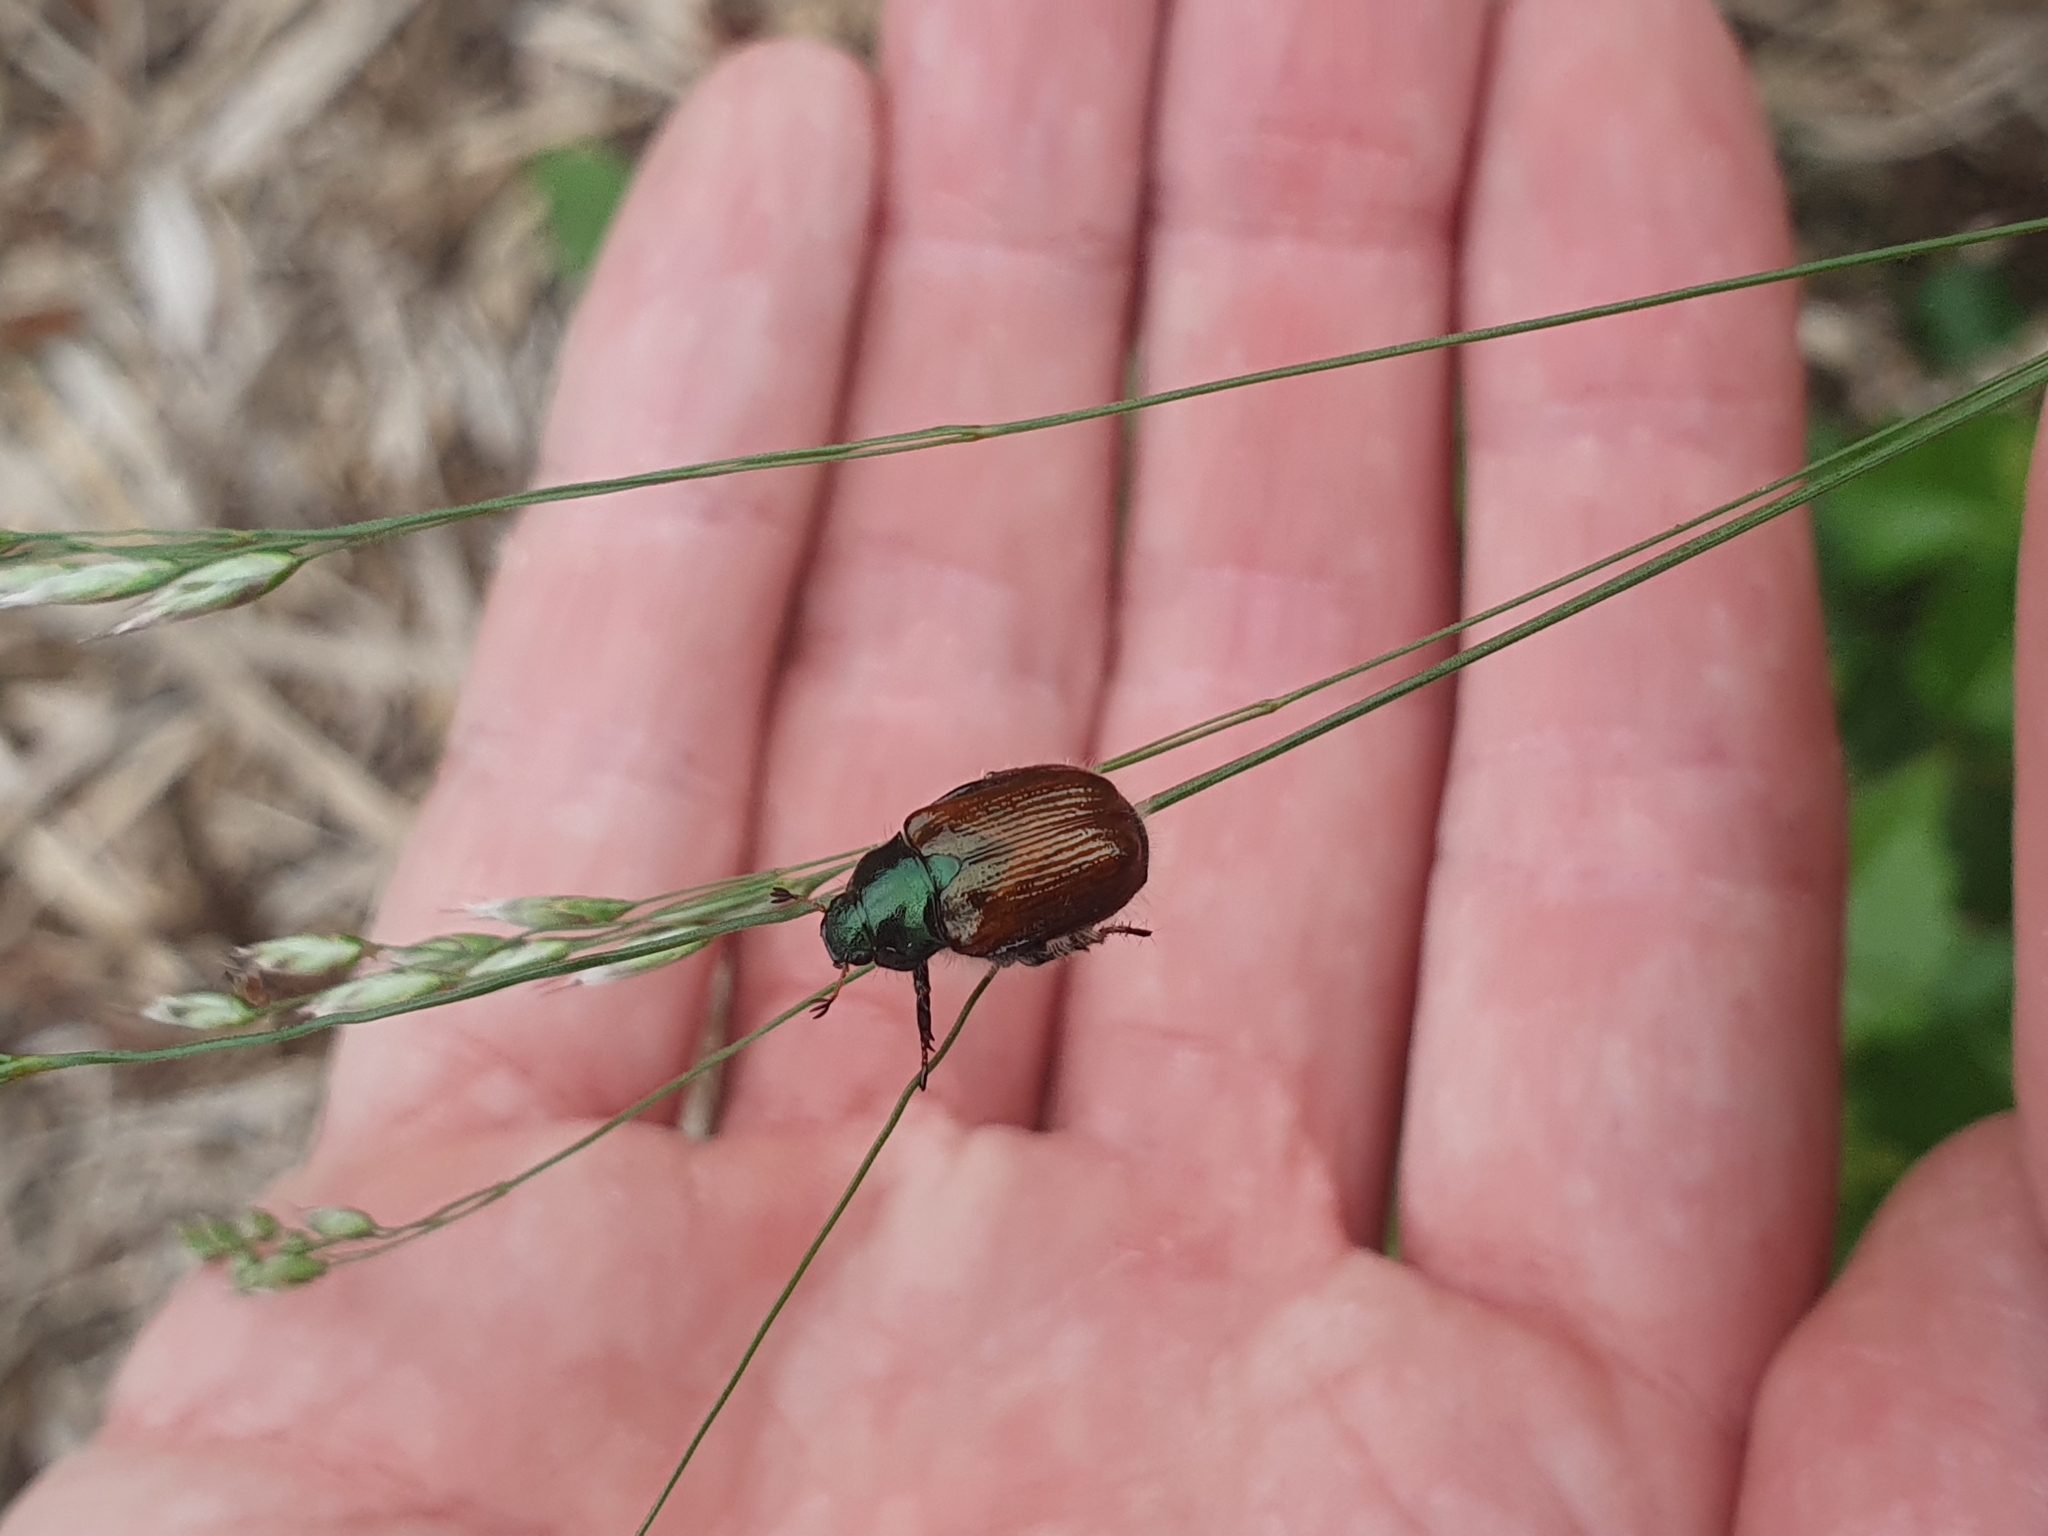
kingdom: Animalia
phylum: Arthropoda
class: Insecta
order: Coleoptera
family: Scarabaeidae
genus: Phyllopertha
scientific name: Phyllopertha horticola
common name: Garden chafer
